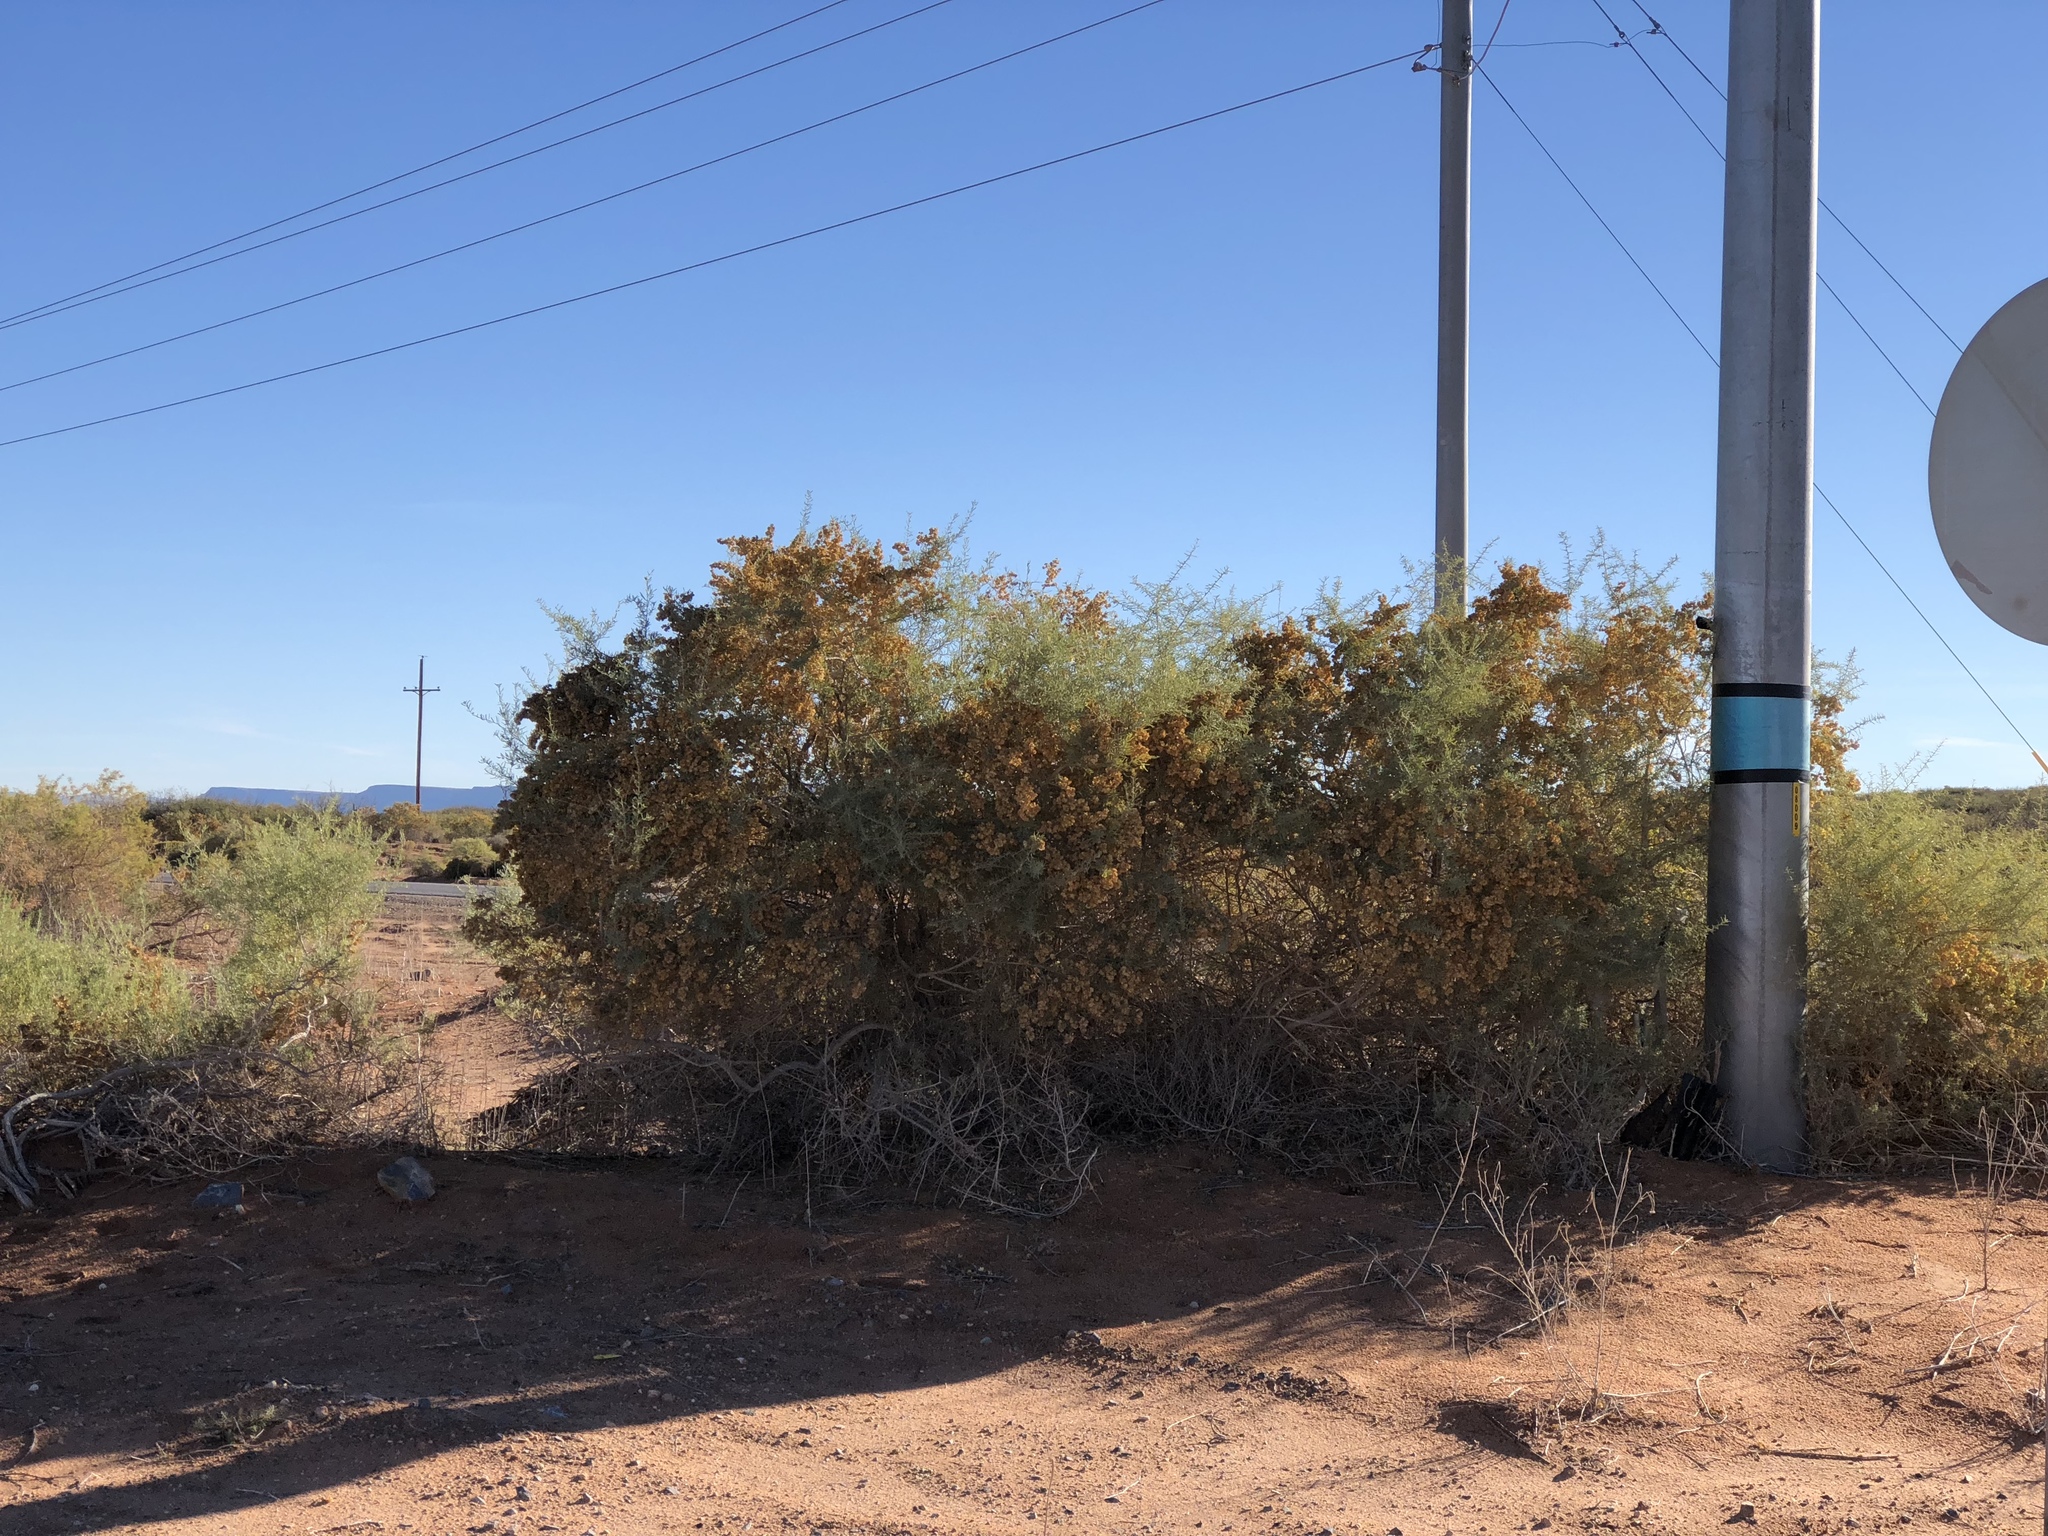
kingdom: Plantae
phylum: Tracheophyta
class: Magnoliopsida
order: Caryophyllales
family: Amaranthaceae
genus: Atriplex
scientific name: Atriplex canescens
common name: Four-wing saltbush
